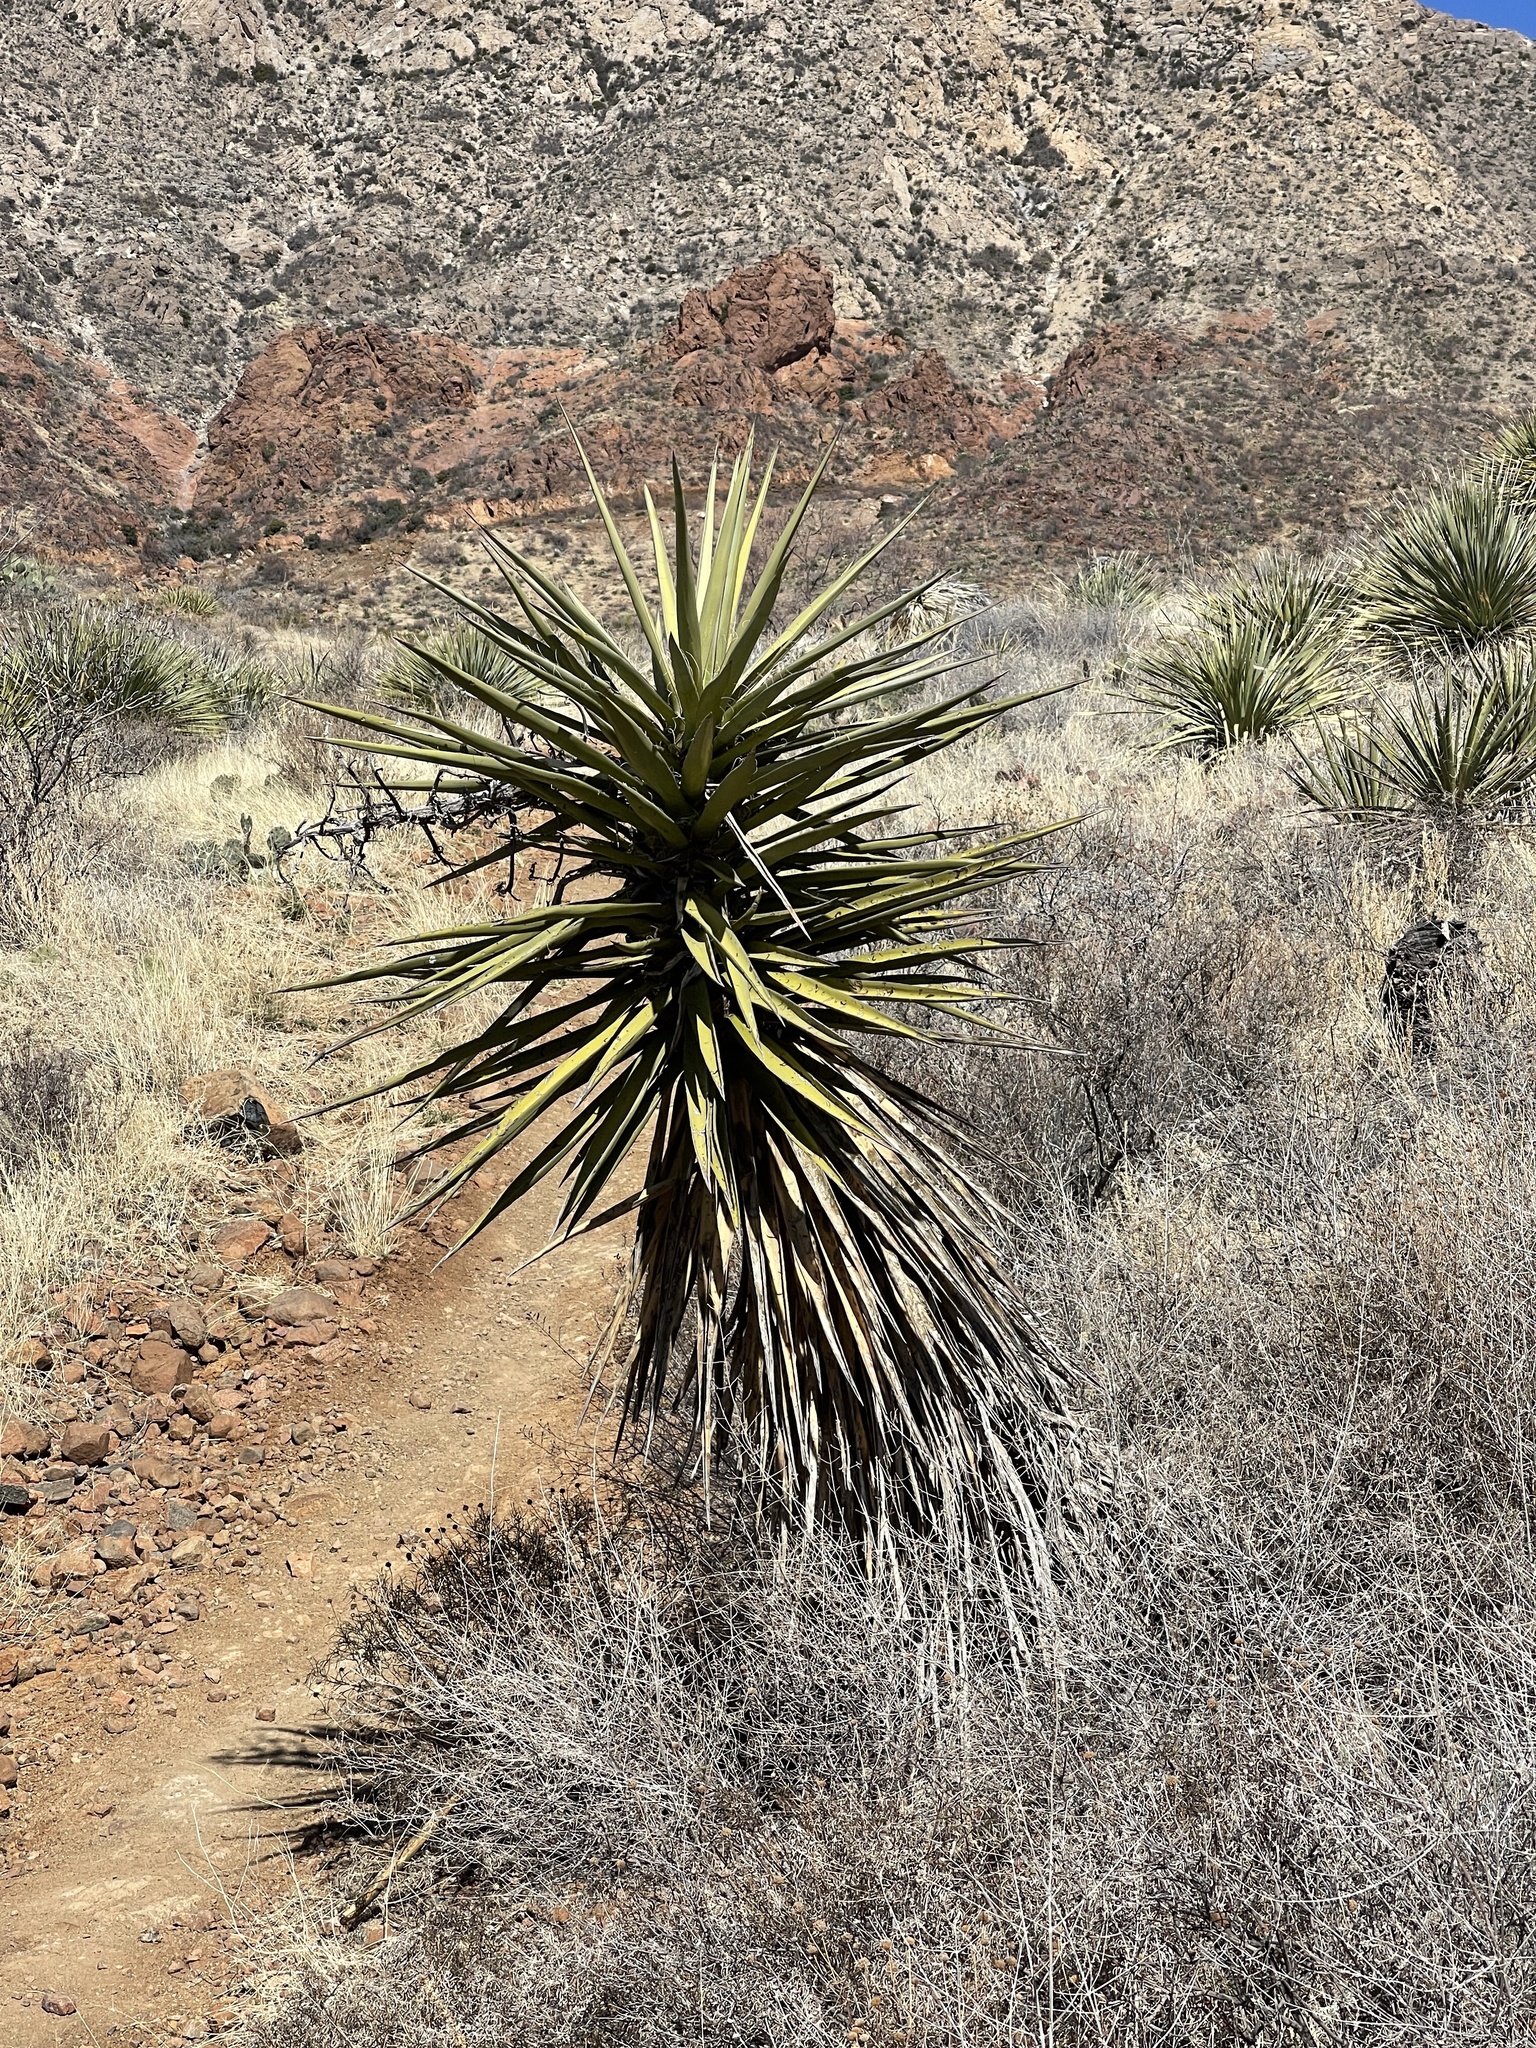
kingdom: Plantae
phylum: Tracheophyta
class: Liliopsida
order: Asparagales
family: Asparagaceae
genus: Yucca
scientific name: Yucca treculiana
